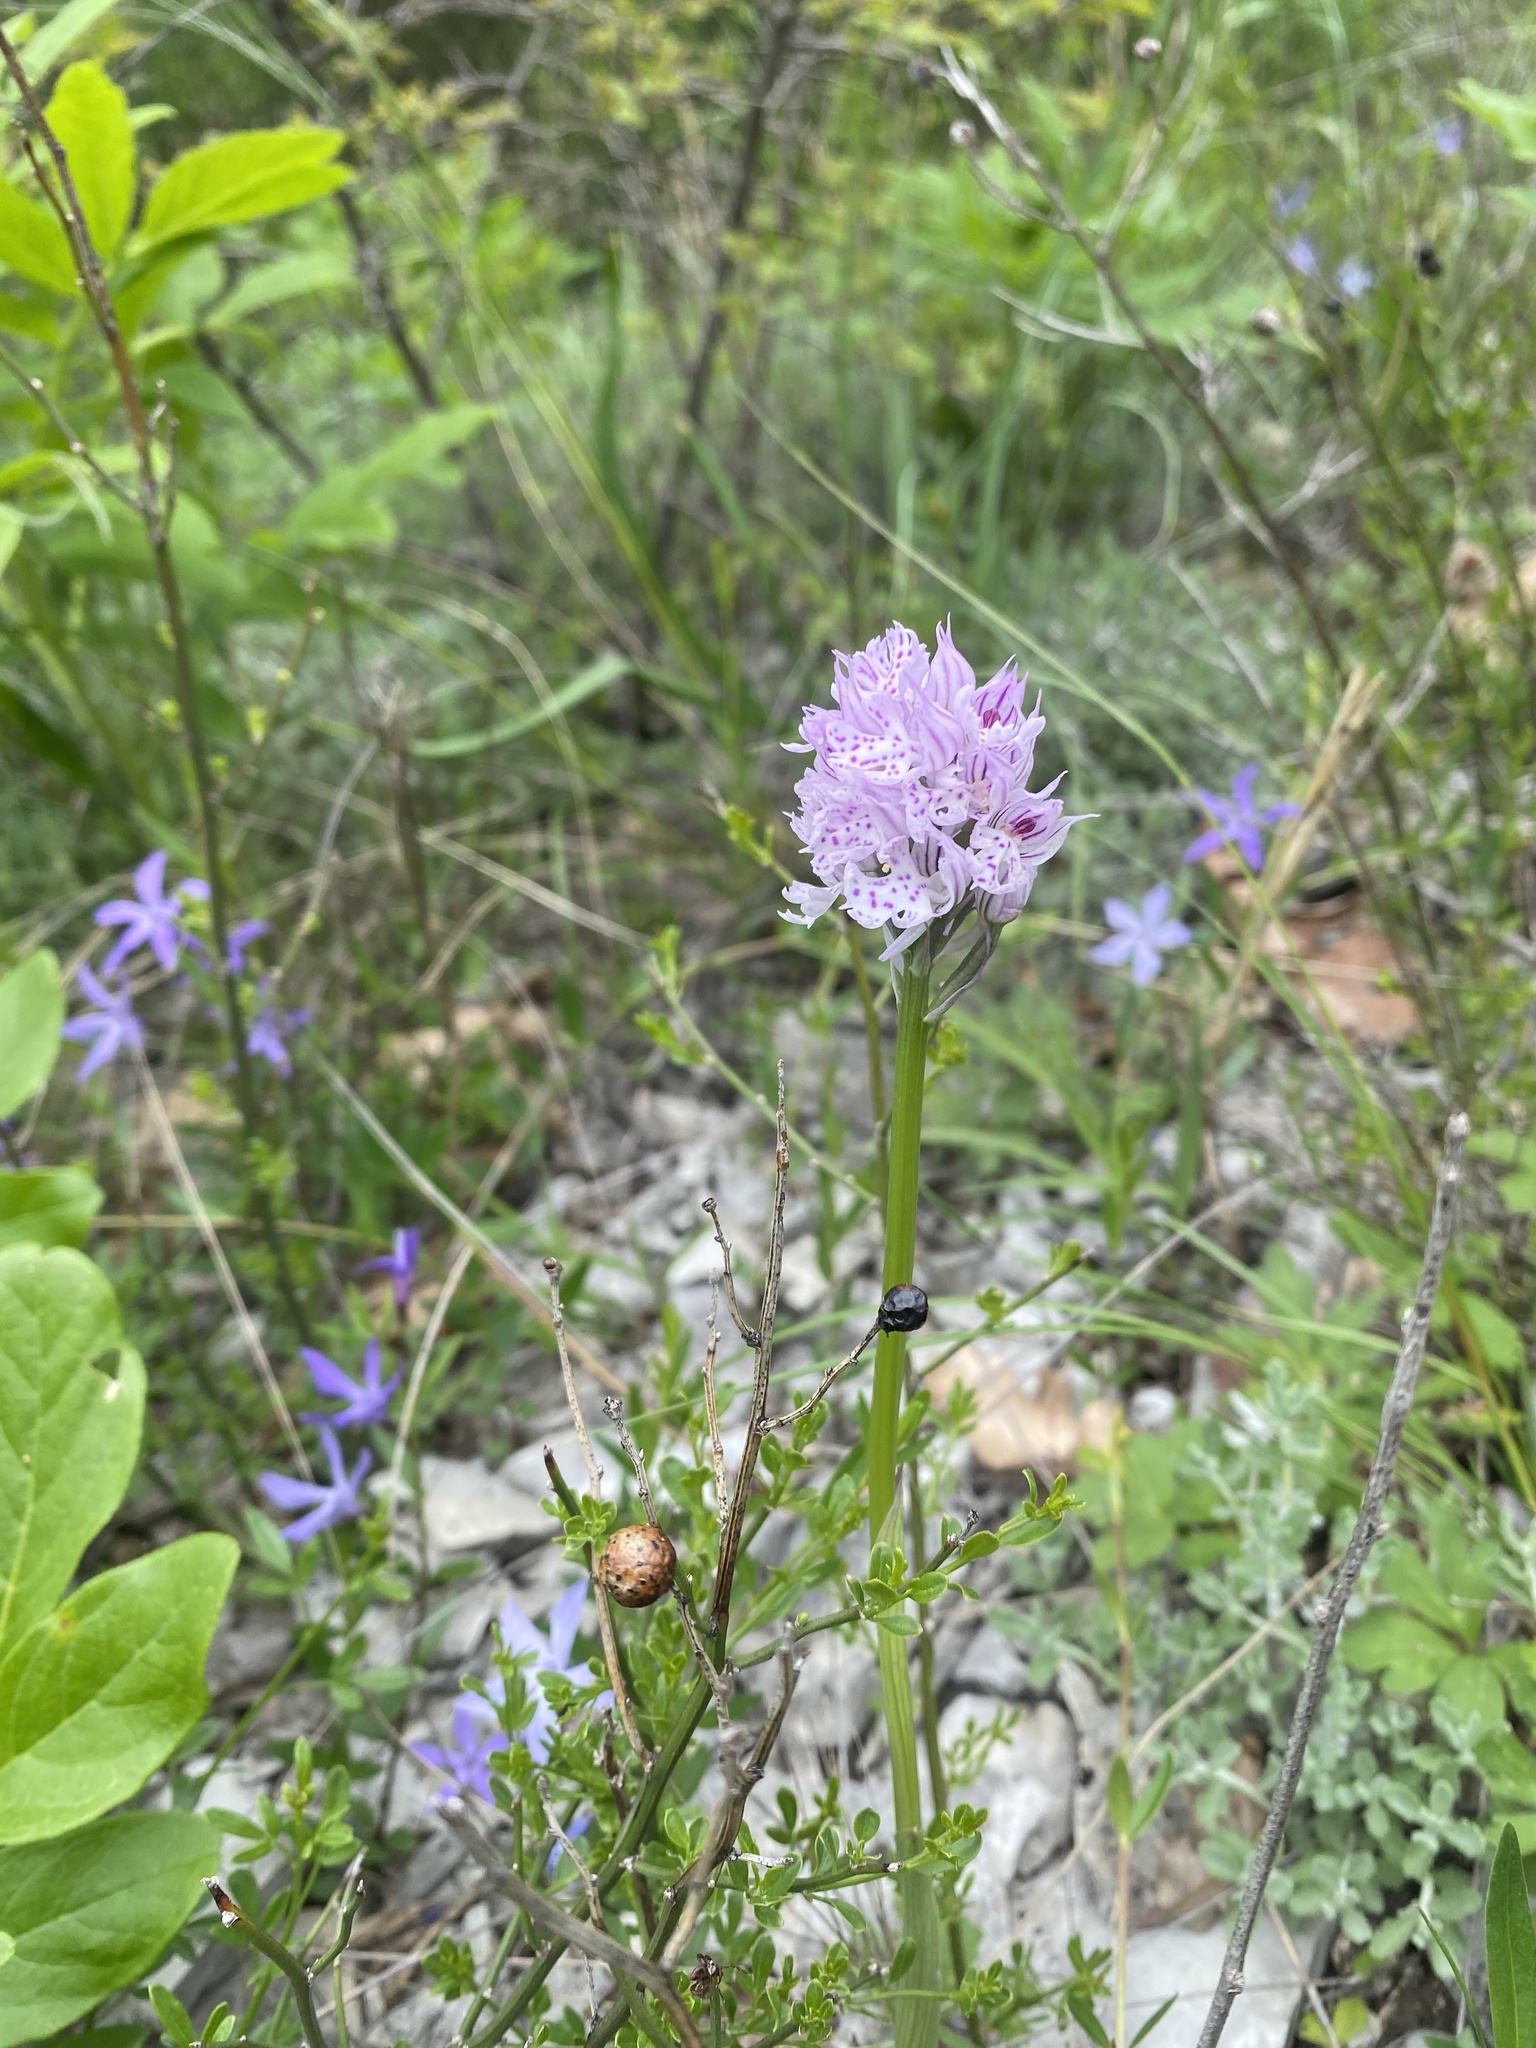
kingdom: Plantae
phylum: Tracheophyta
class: Liliopsida
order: Asparagales
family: Orchidaceae
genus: Neotinea
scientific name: Neotinea tridentata
